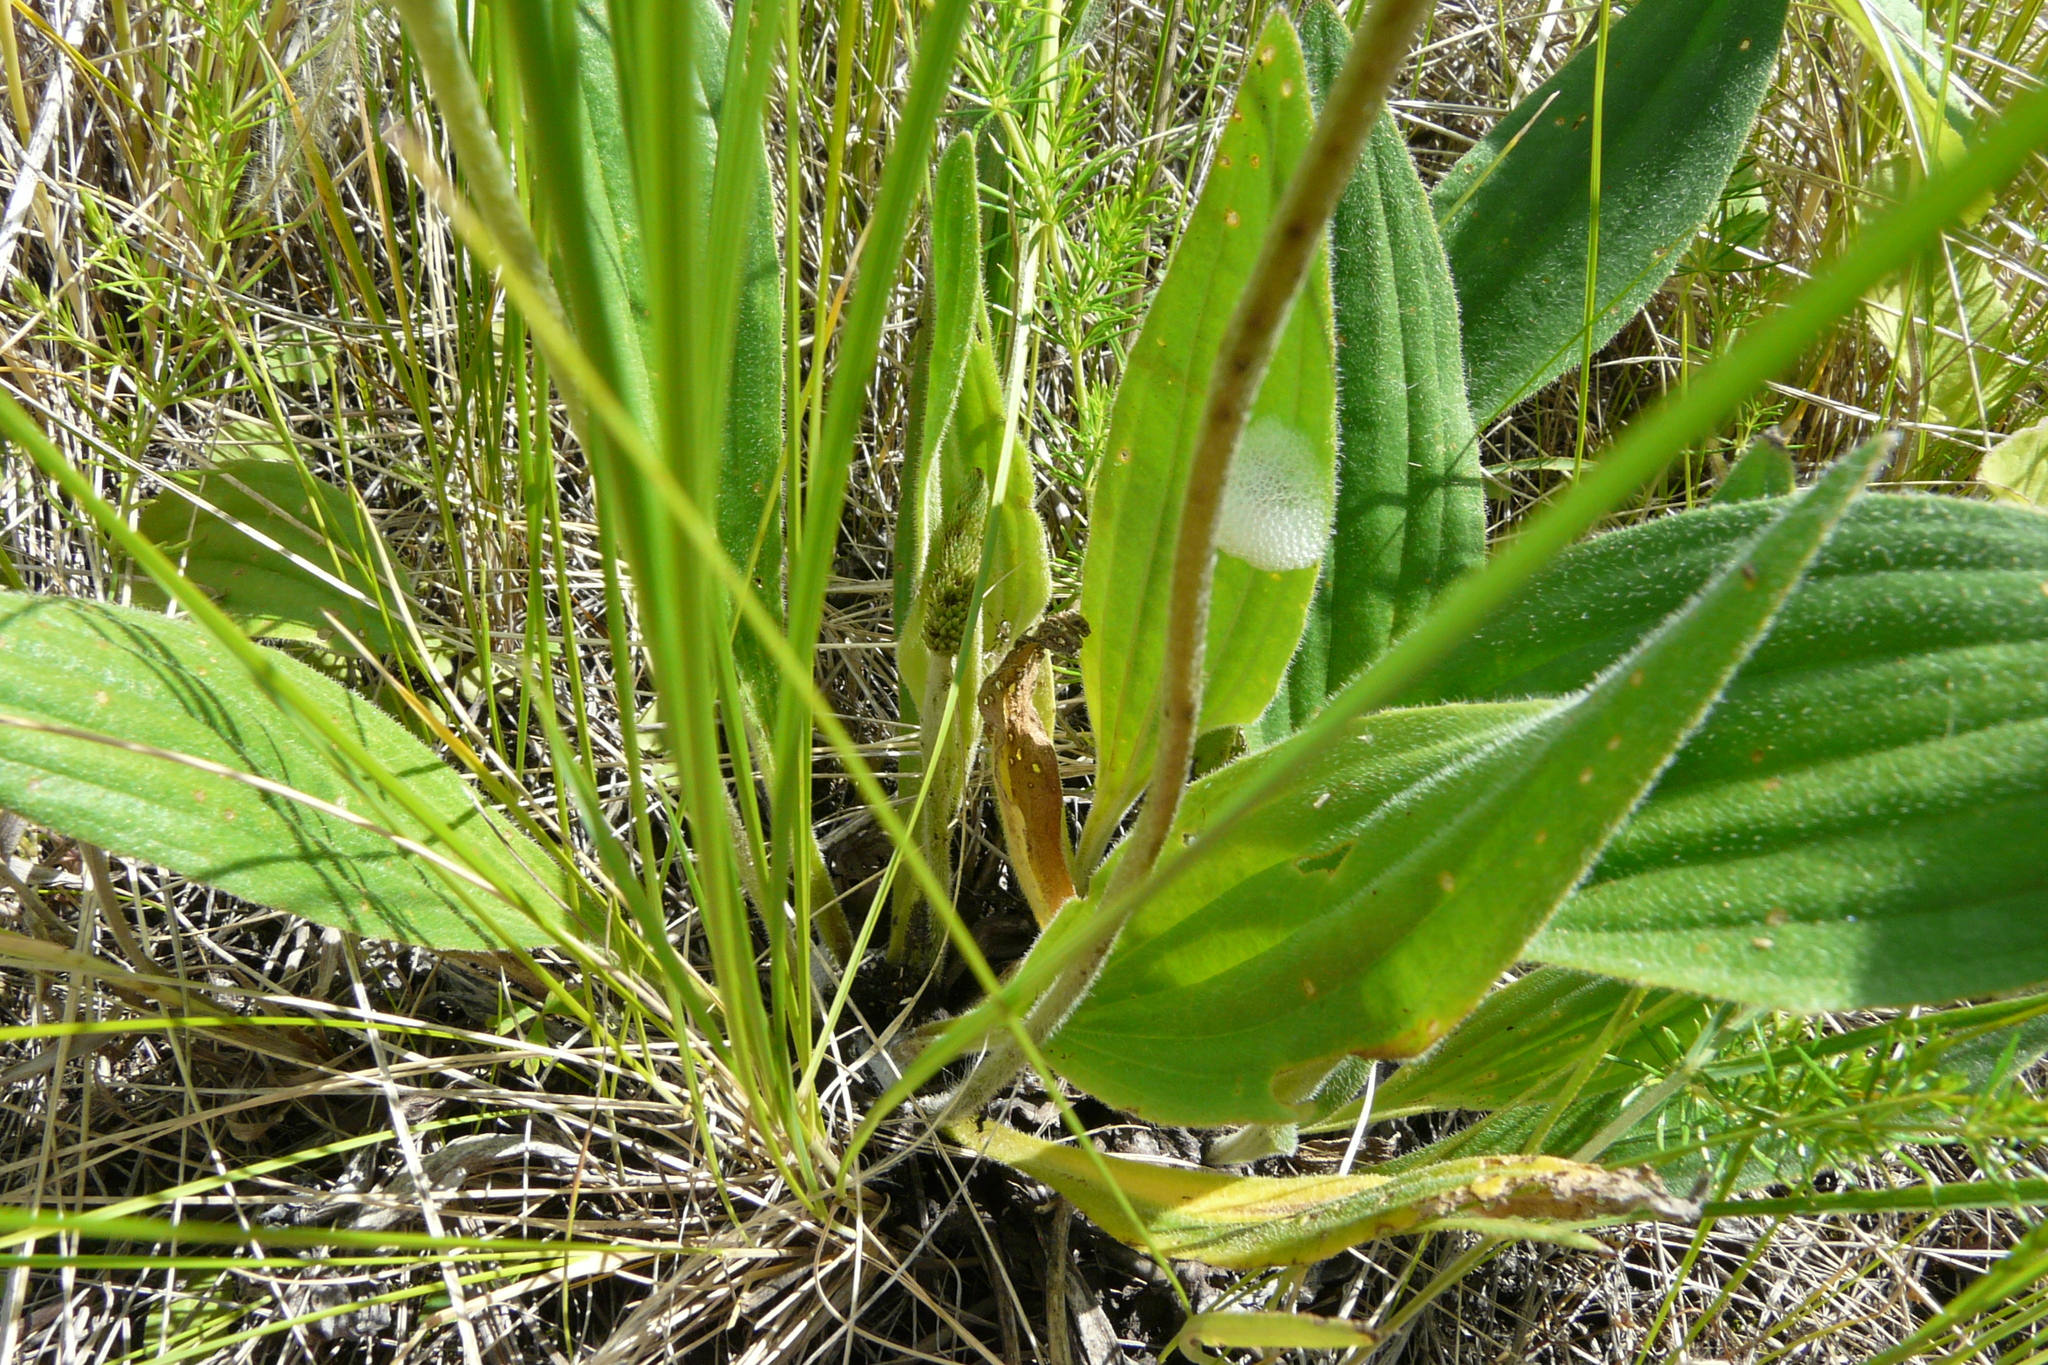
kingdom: Plantae
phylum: Tracheophyta
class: Magnoliopsida
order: Lamiales
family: Plantaginaceae
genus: Plantago
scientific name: Plantago urvillei
